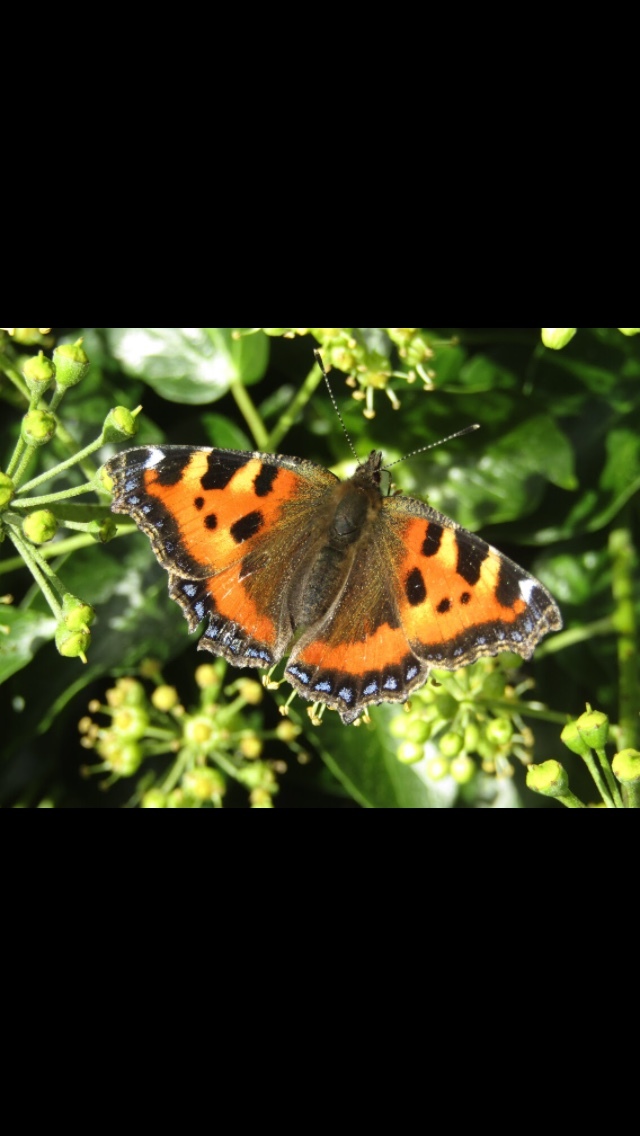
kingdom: Animalia
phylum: Arthropoda
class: Insecta
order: Lepidoptera
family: Nymphalidae
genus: Aglais
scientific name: Aglais urticae
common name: Small tortoiseshell
